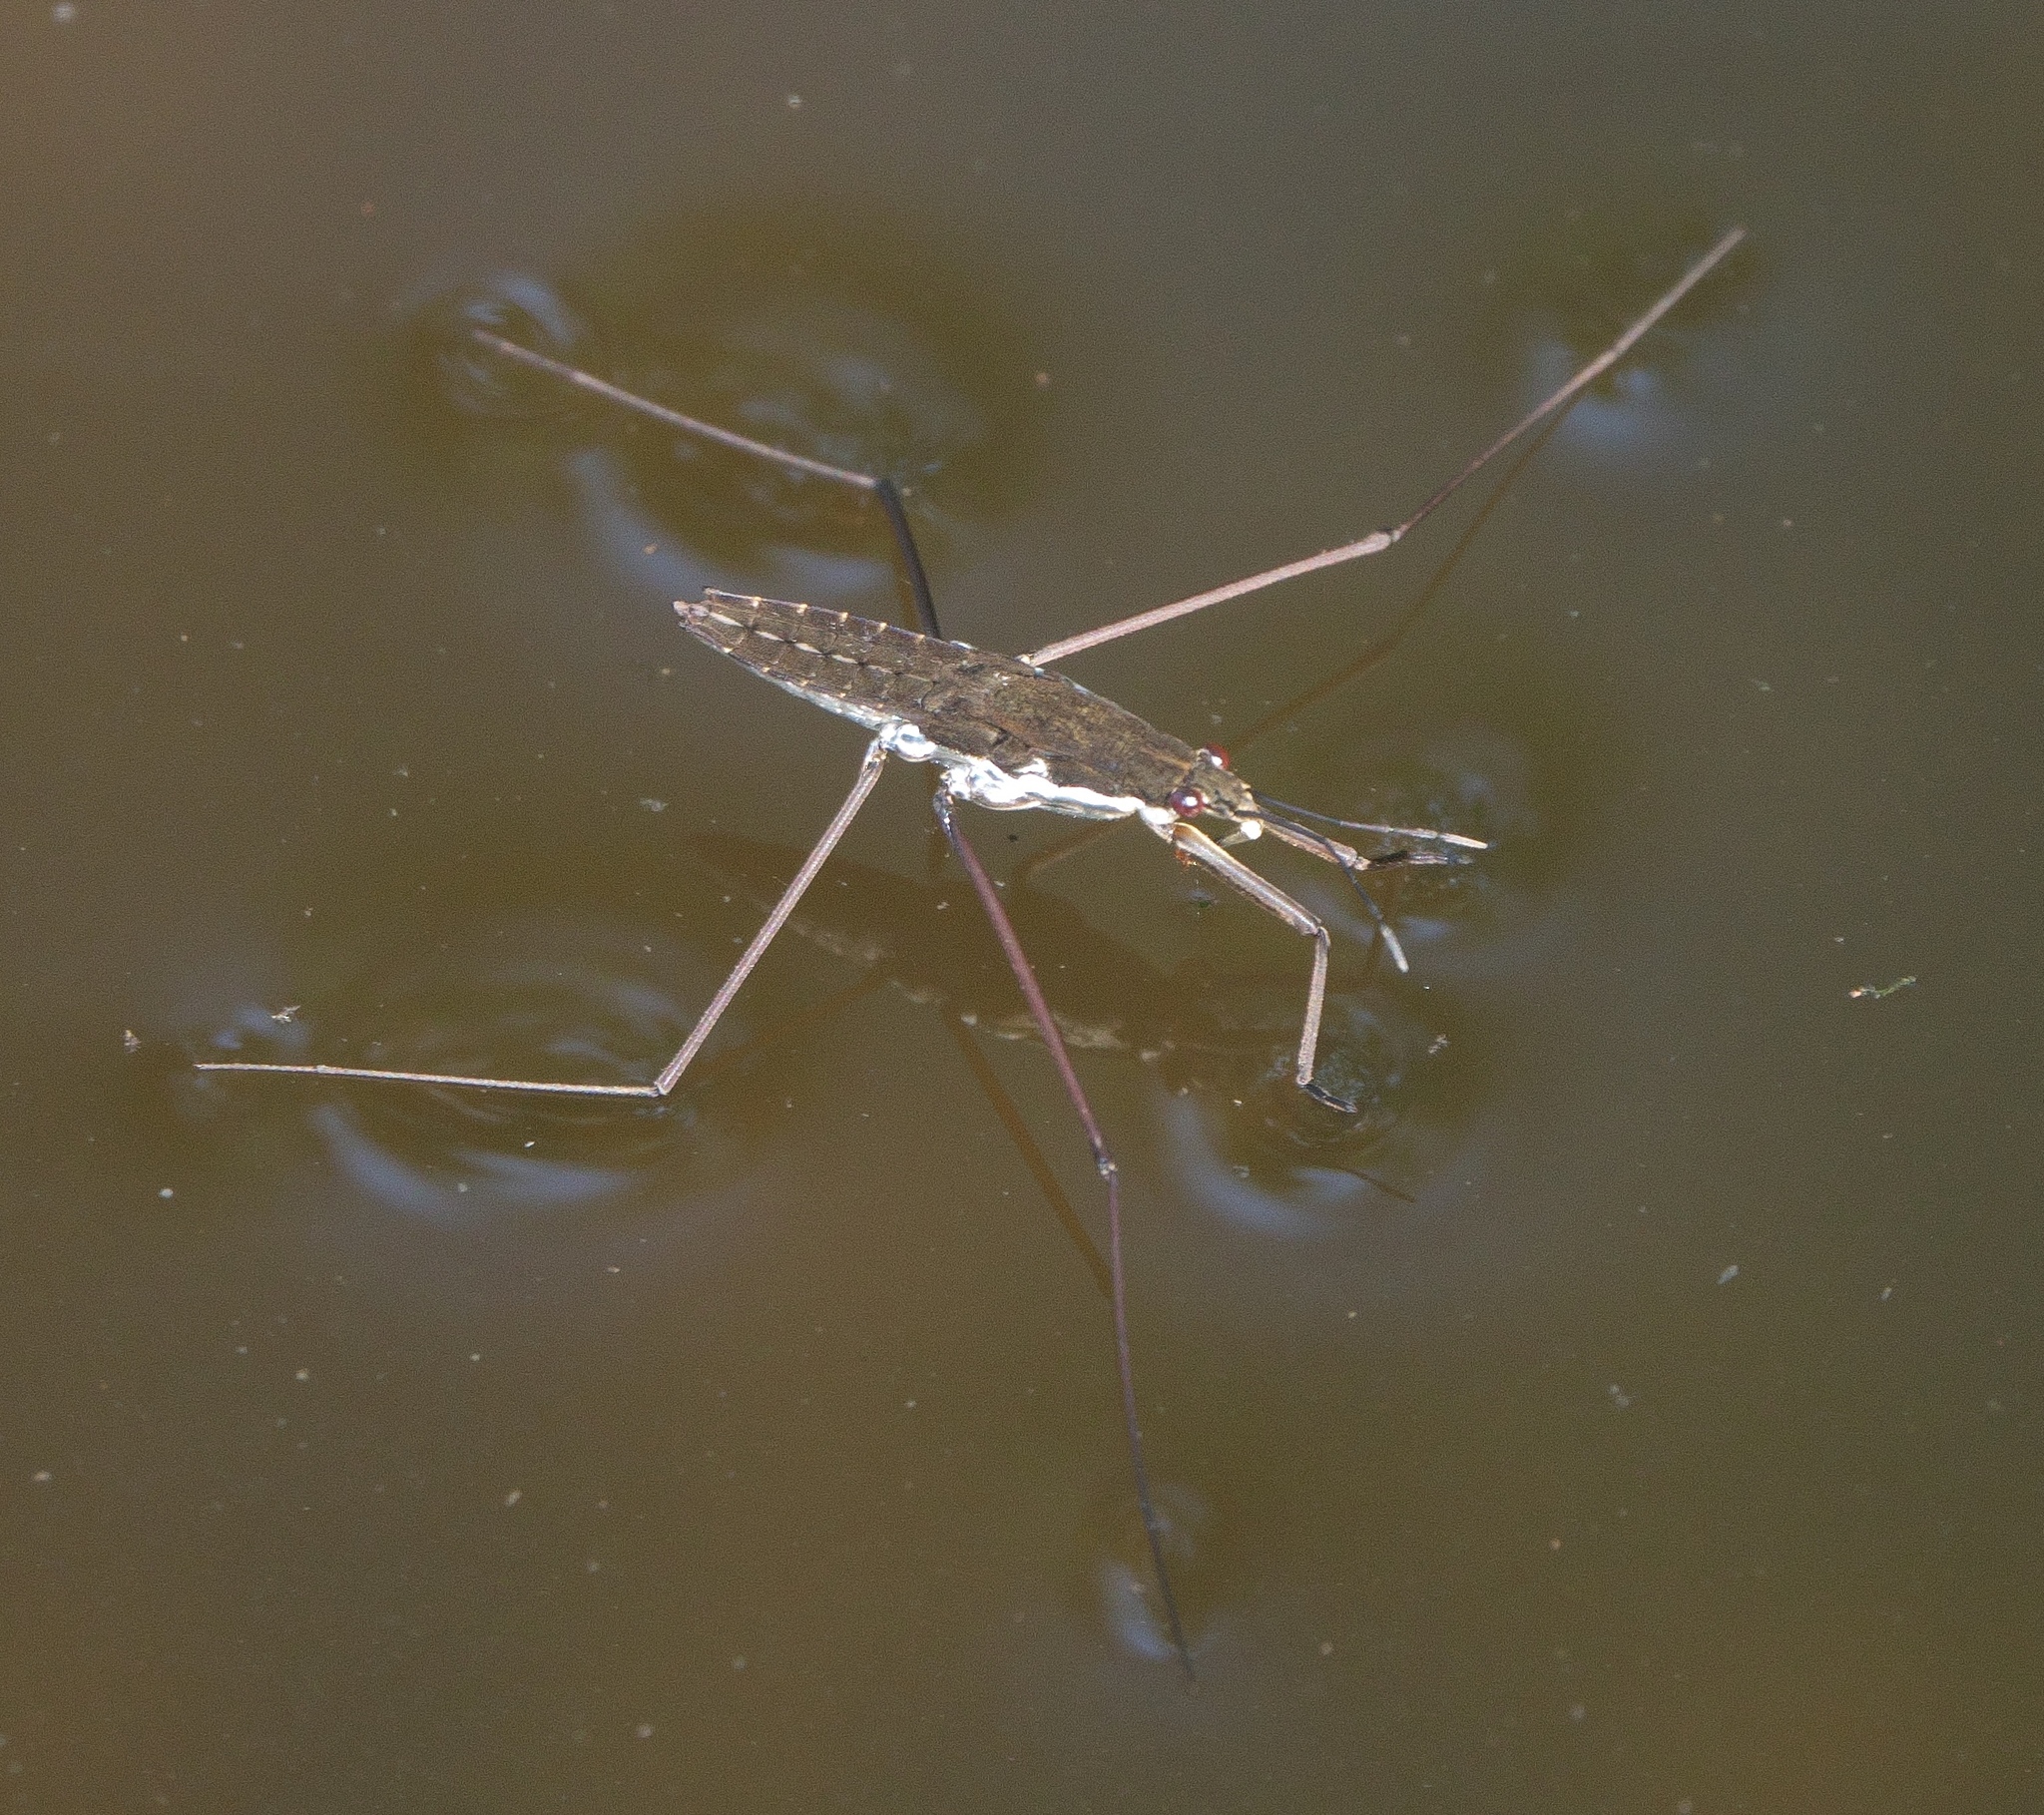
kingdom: Animalia
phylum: Arthropoda
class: Insecta
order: Hemiptera
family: Gerridae
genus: Aquarius
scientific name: Aquarius remigis
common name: Common water strider
